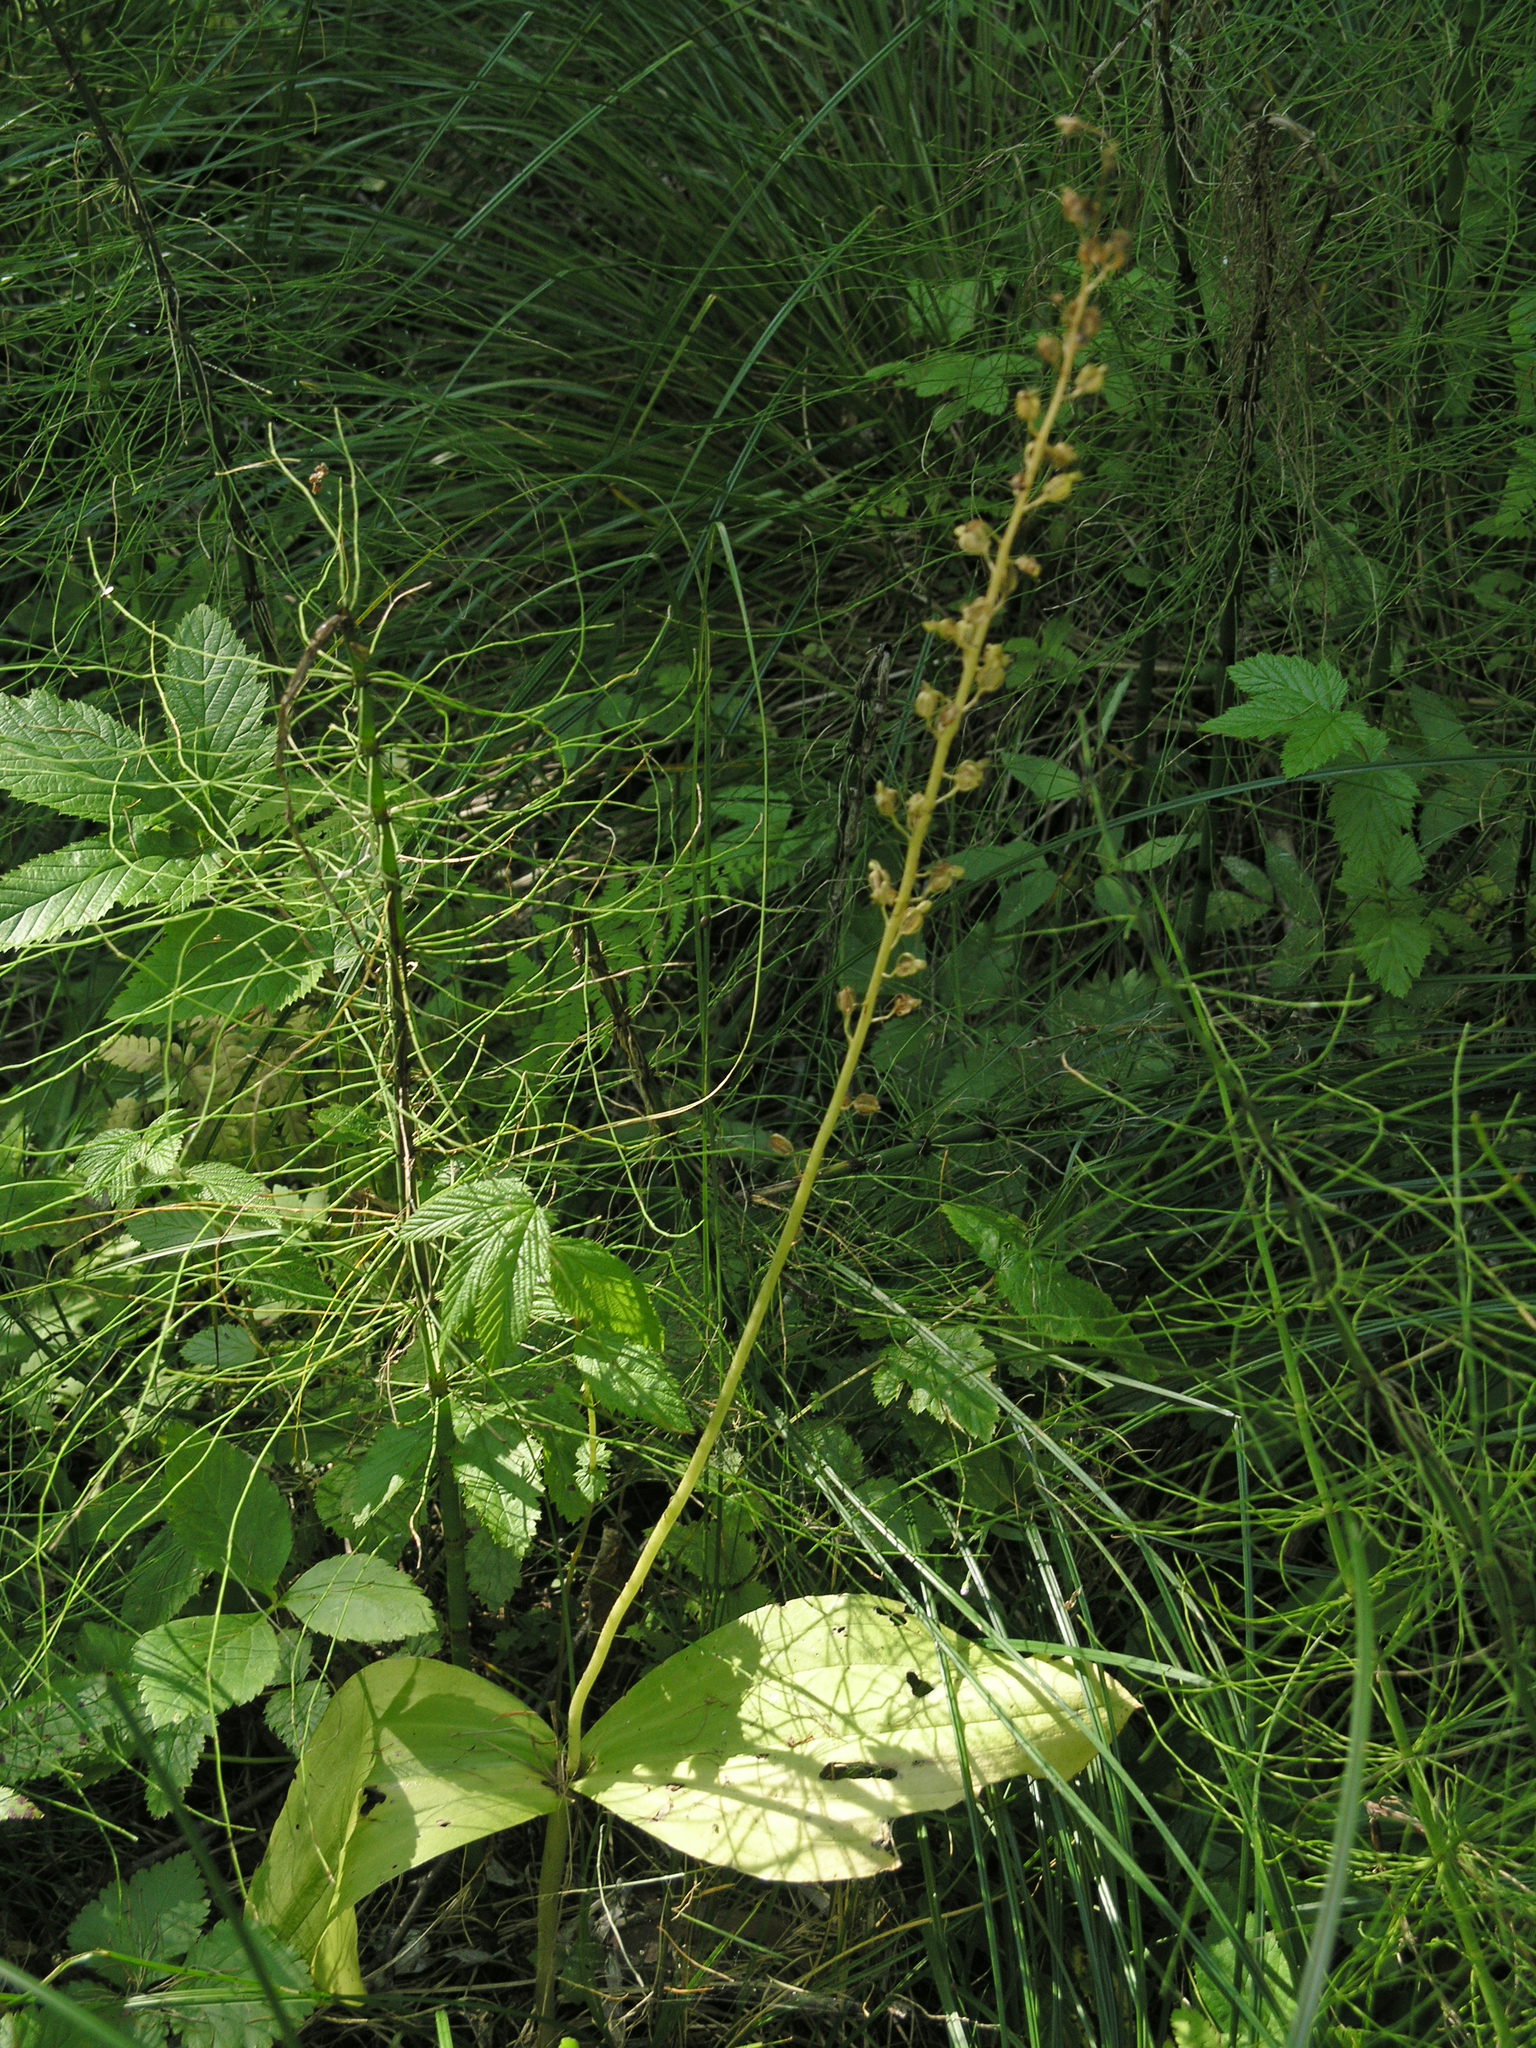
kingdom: Plantae
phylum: Tracheophyta
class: Liliopsida
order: Asparagales
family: Orchidaceae
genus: Neottia
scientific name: Neottia ovata
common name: Common twayblade
